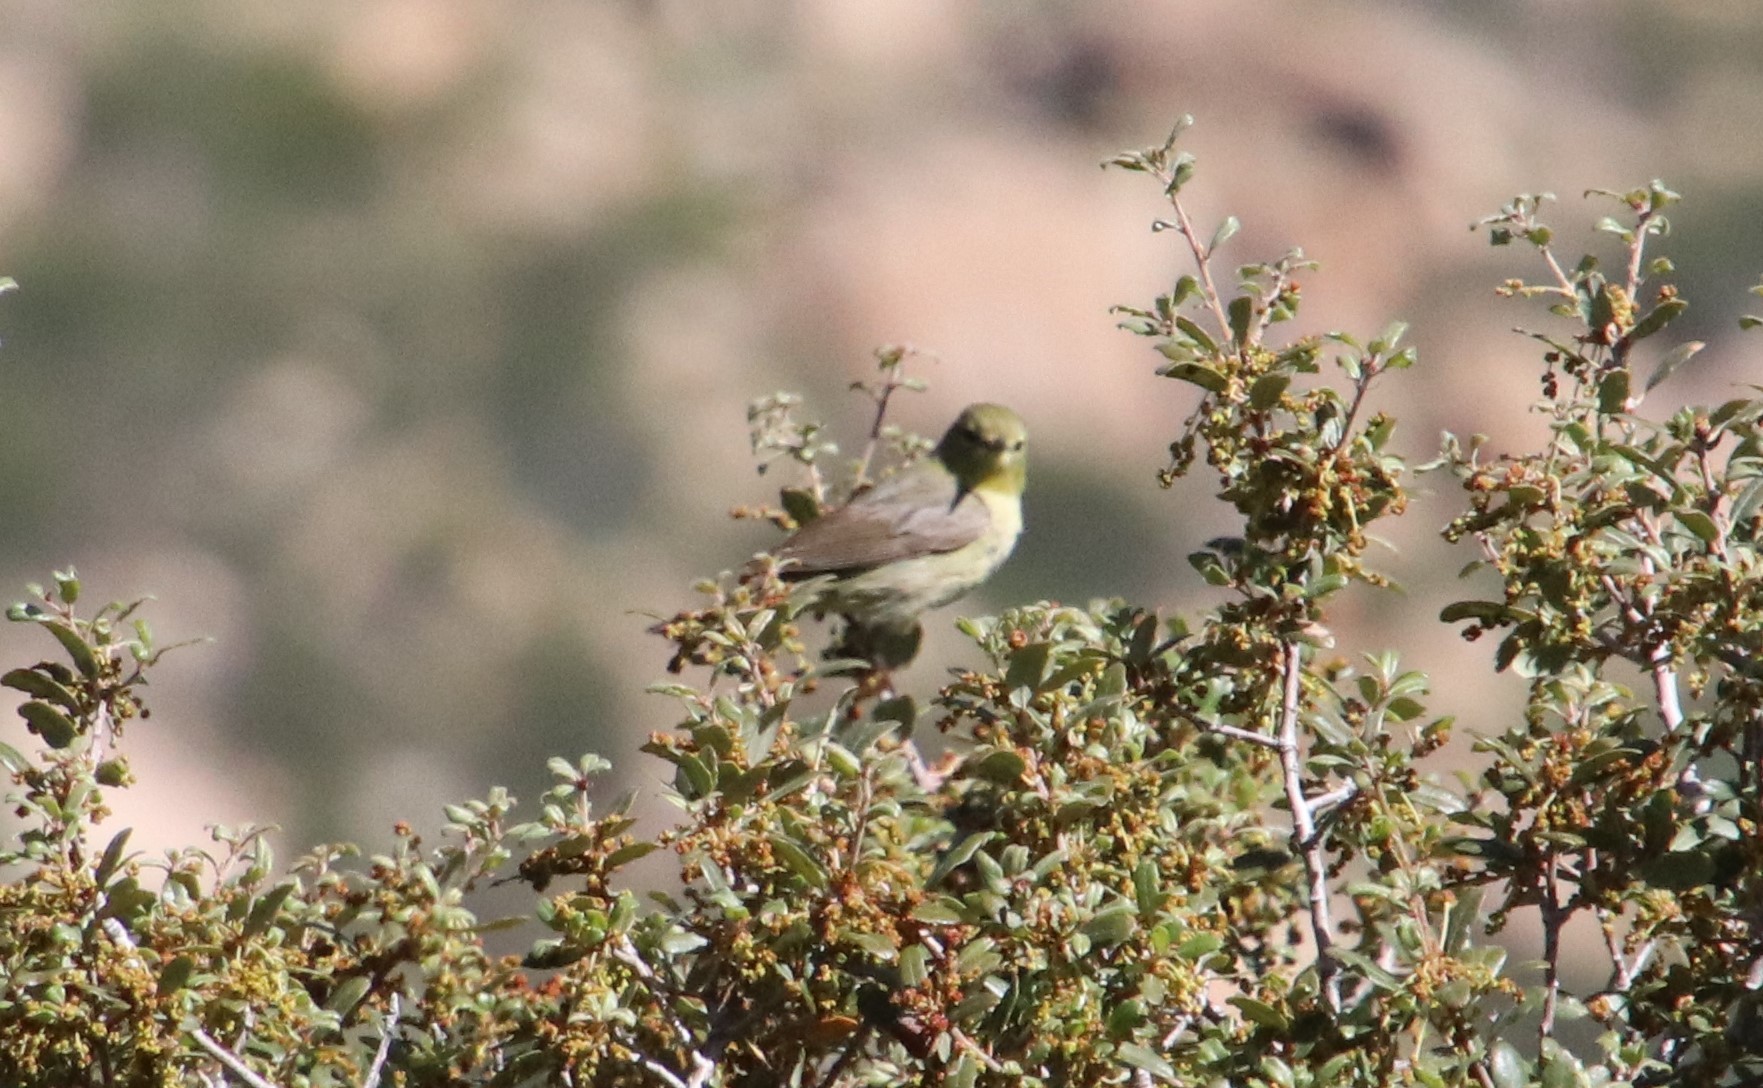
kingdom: Animalia
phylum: Chordata
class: Aves
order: Passeriformes
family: Parulidae
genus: Leiothlypis
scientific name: Leiothlypis celata
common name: Orange-crowned warbler
